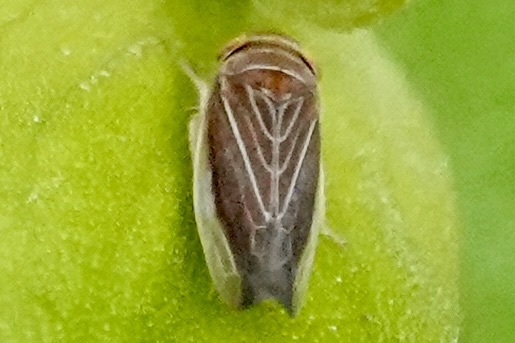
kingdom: Animalia
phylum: Arthropoda
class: Insecta
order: Hemiptera
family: Cicadellidae
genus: Idiodonus
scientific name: Idiodonus kennicotti
